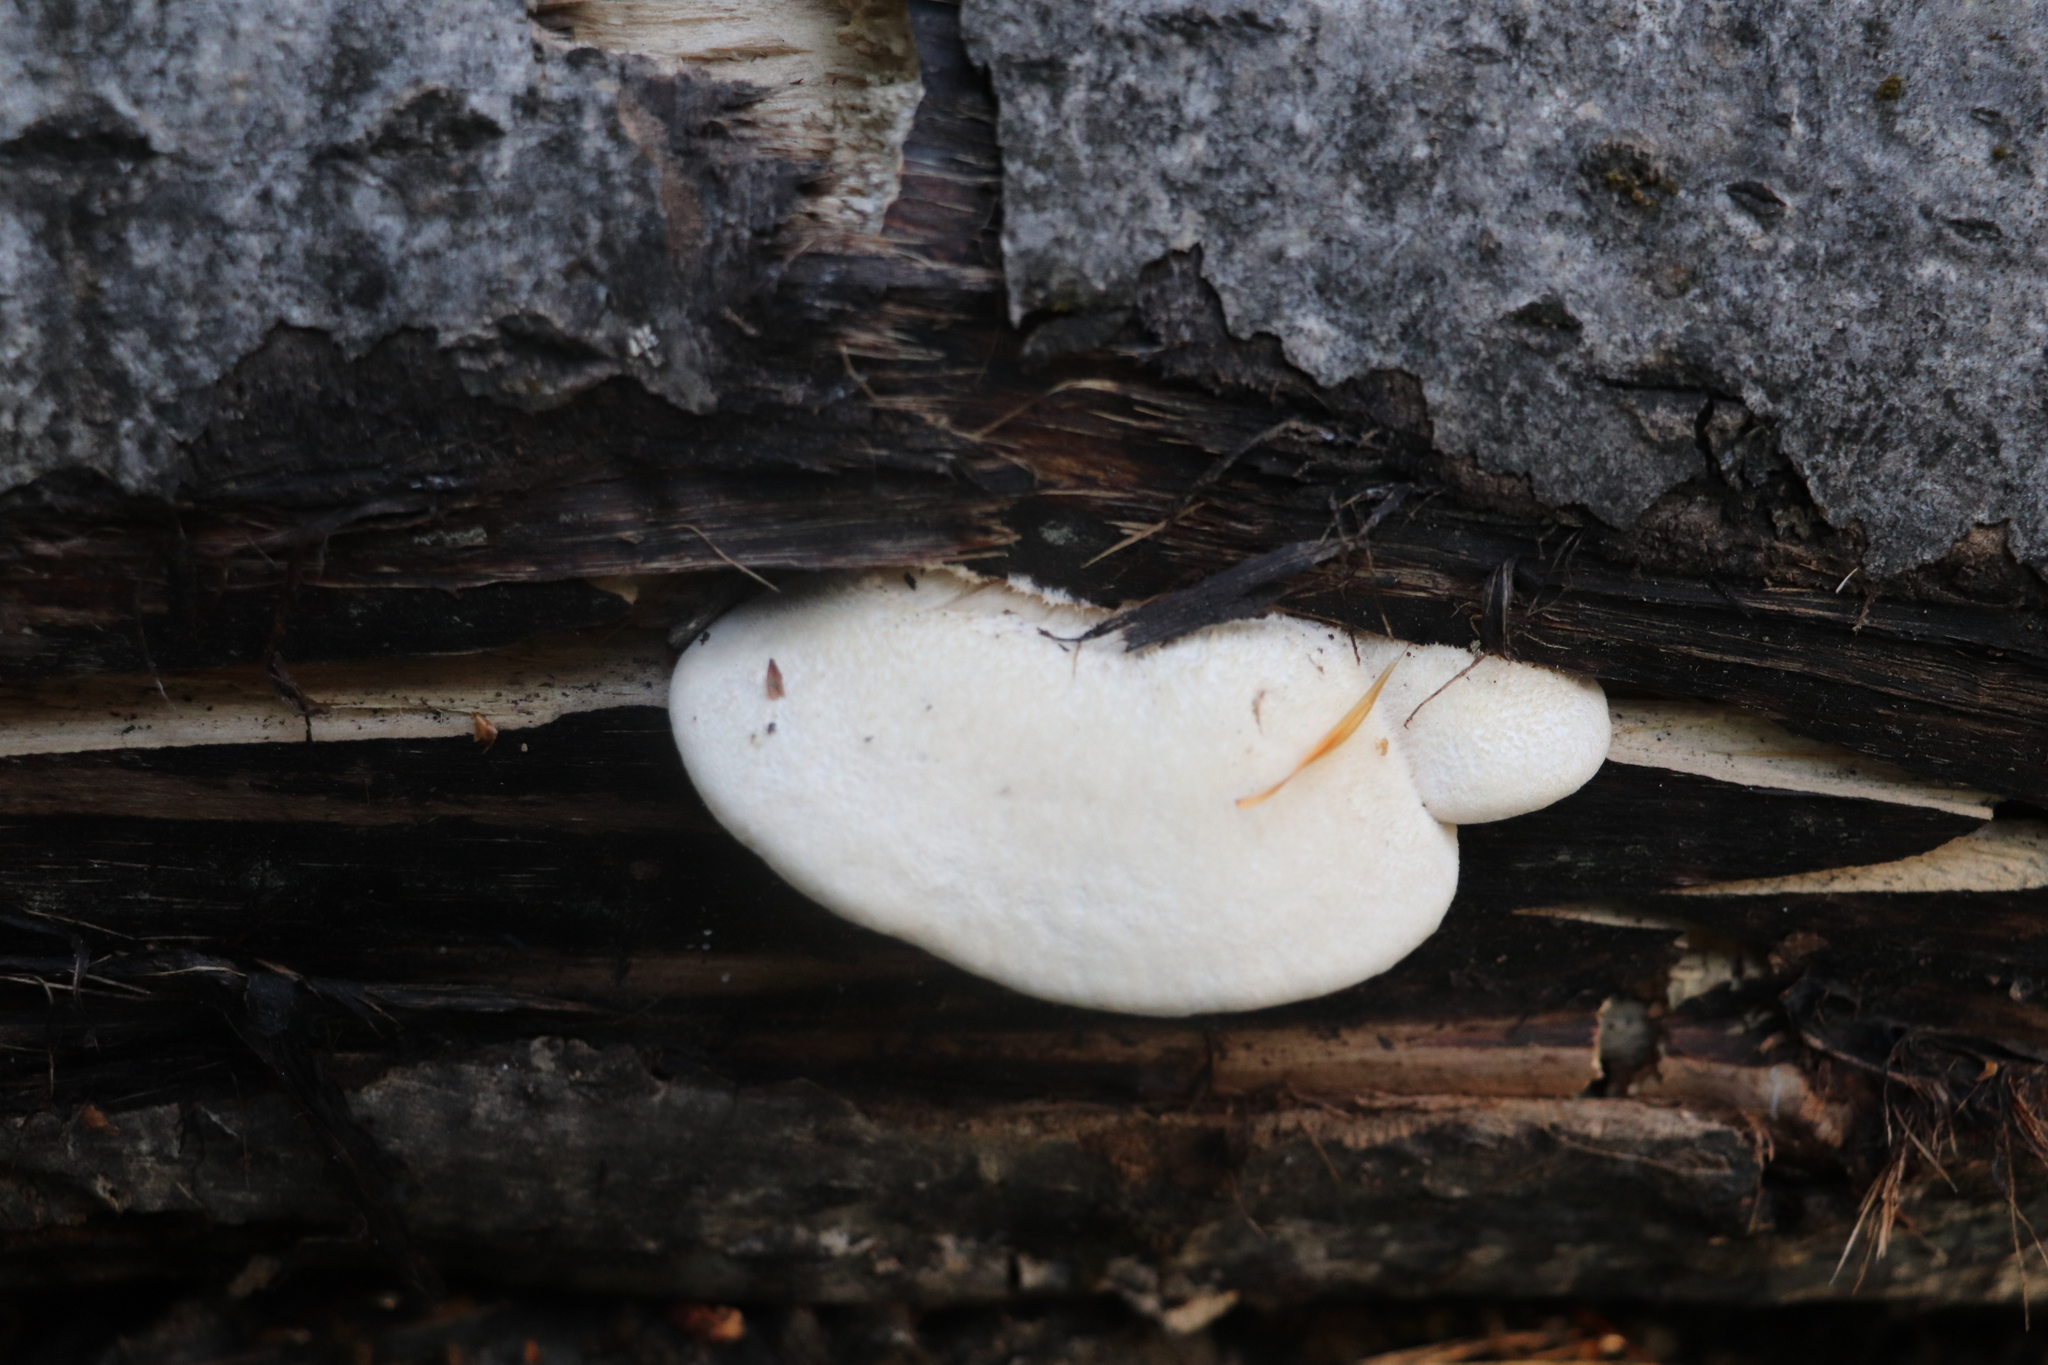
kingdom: Fungi
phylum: Basidiomycota
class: Agaricomycetes
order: Polyporales
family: Polyporaceae
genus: Lentinus
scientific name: Lentinus pilososquamulosus
